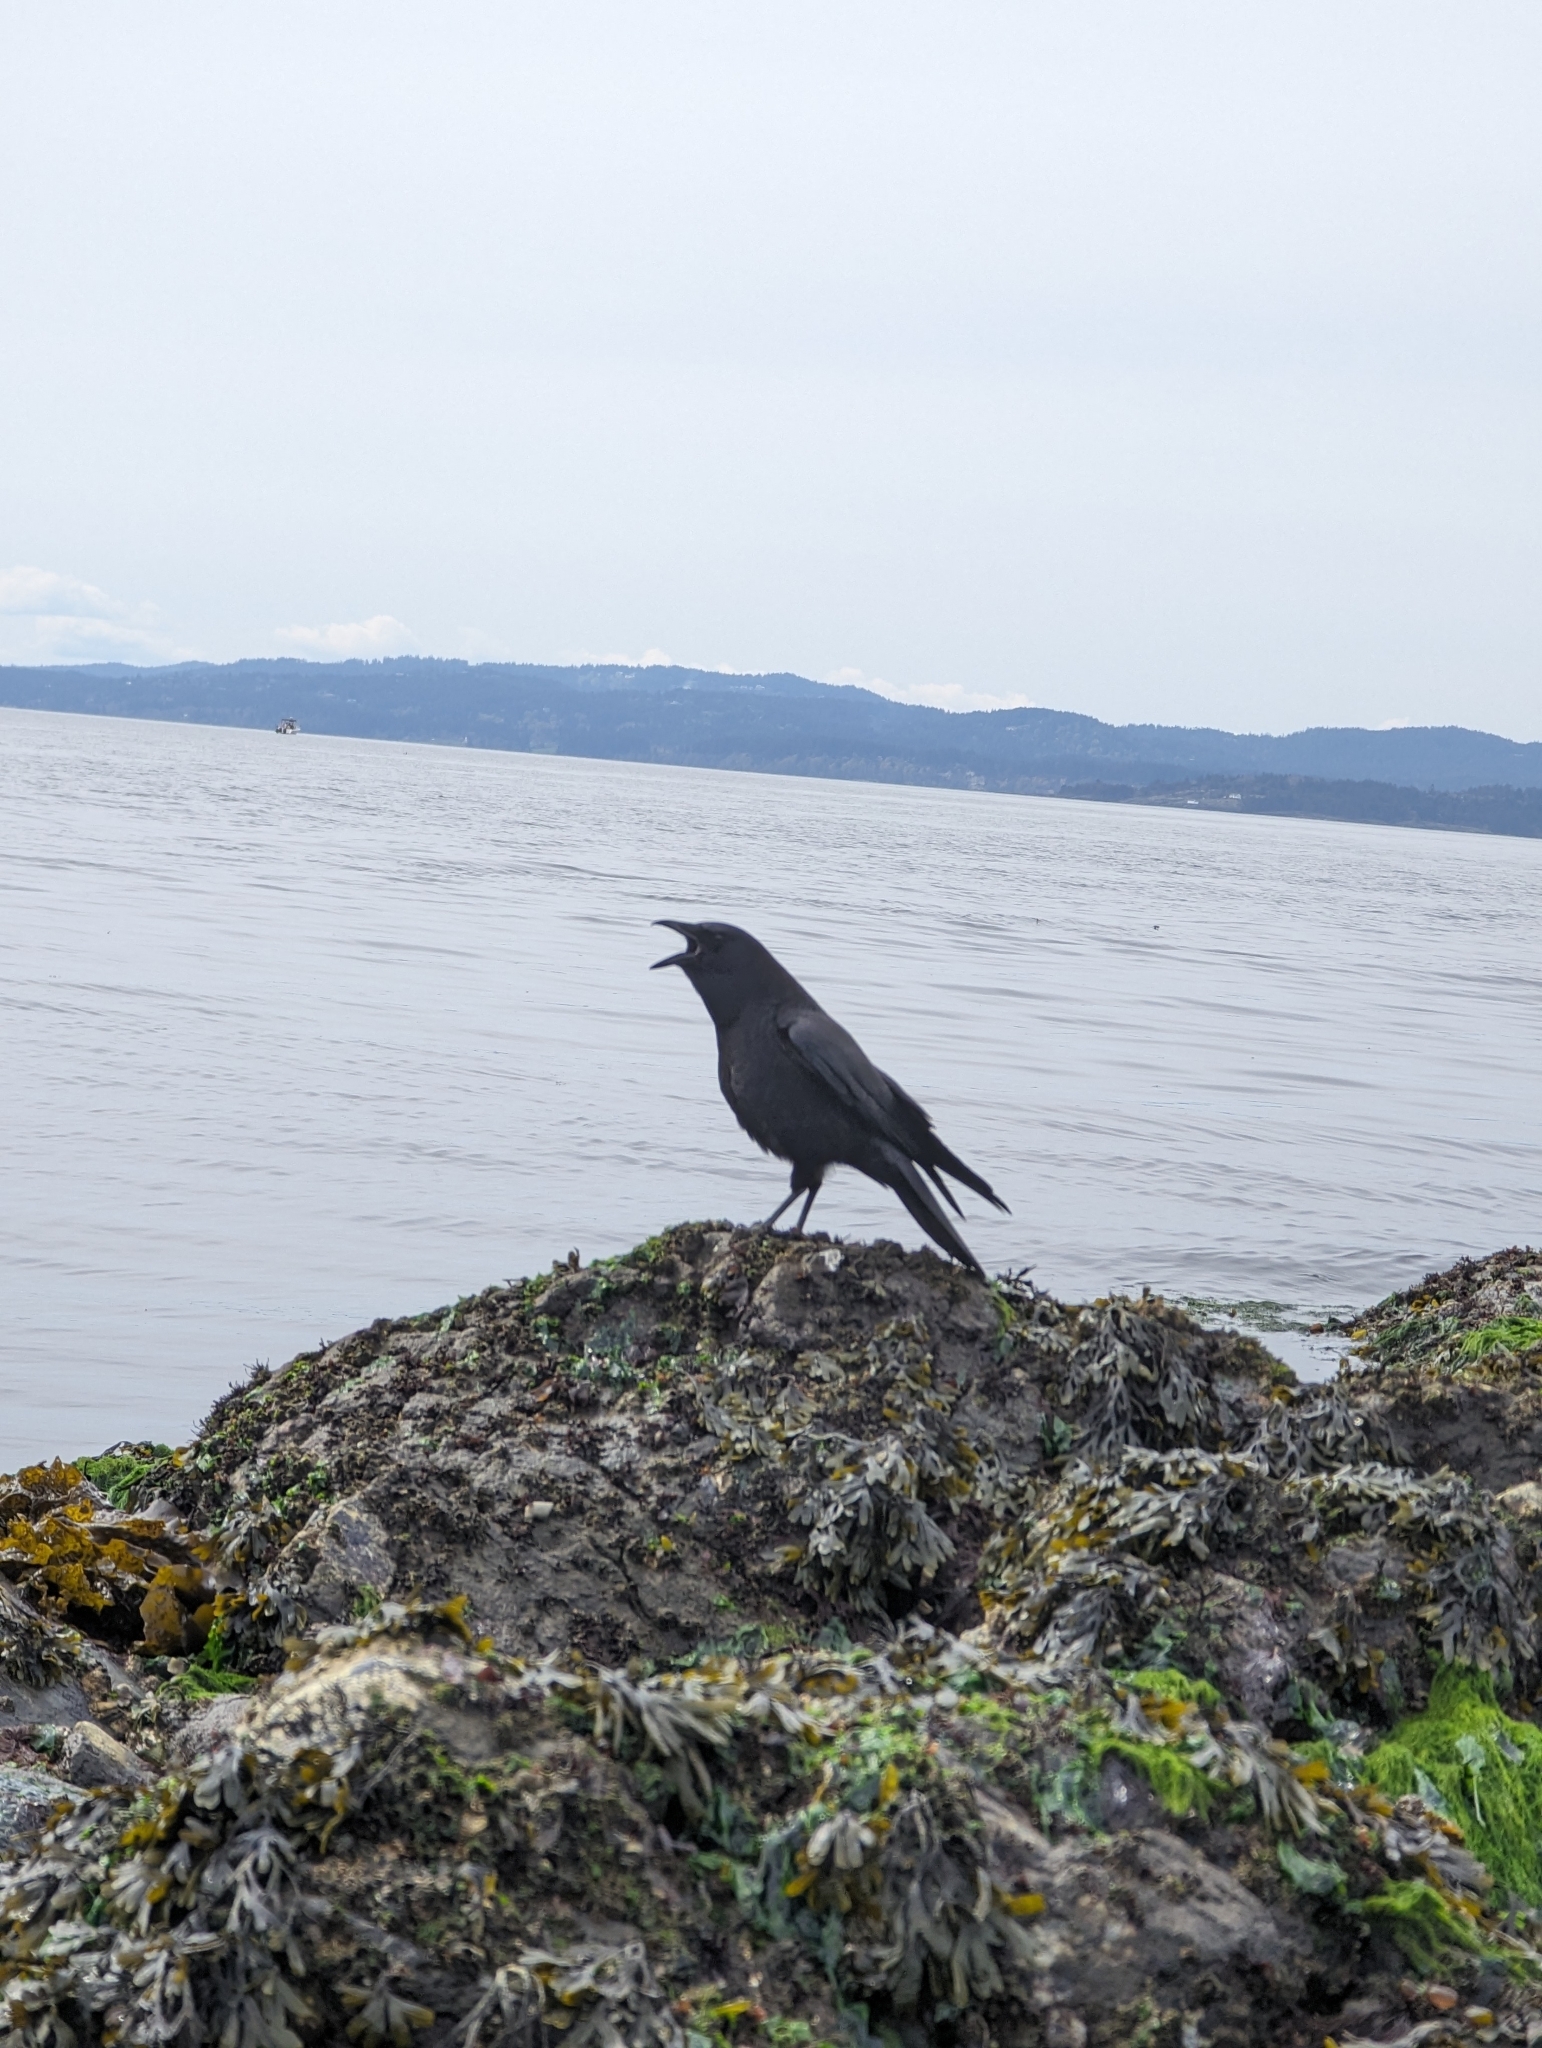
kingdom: Animalia
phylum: Chordata
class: Aves
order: Passeriformes
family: Corvidae
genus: Corvus
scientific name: Corvus brachyrhynchos
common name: American crow
